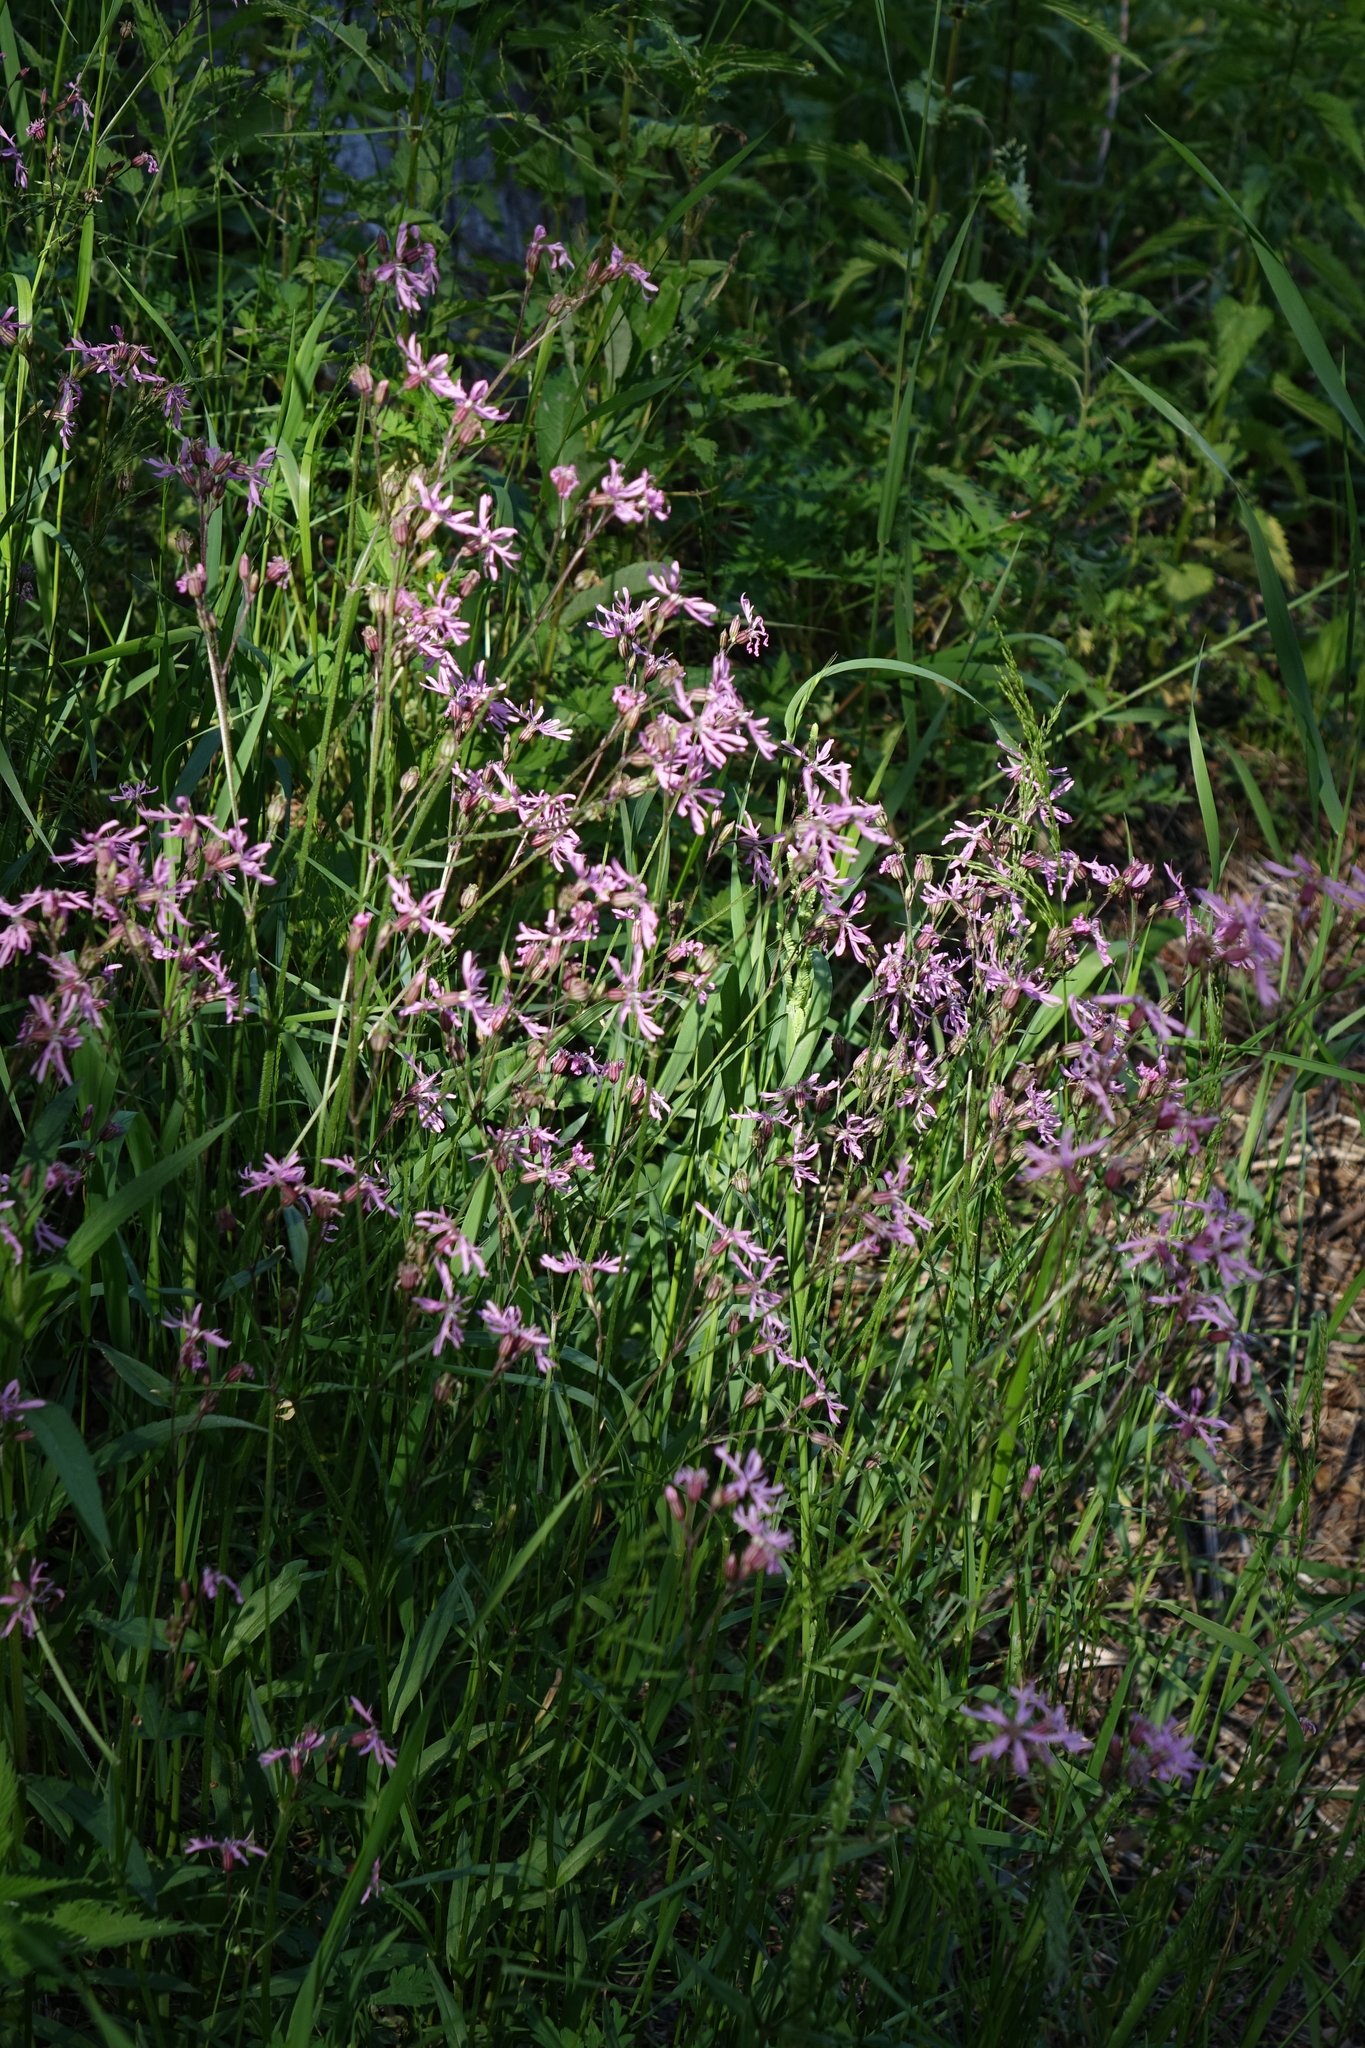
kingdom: Plantae
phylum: Tracheophyta
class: Magnoliopsida
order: Caryophyllales
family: Caryophyllaceae
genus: Silene
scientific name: Silene flos-cuculi
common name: Ragged-robin
